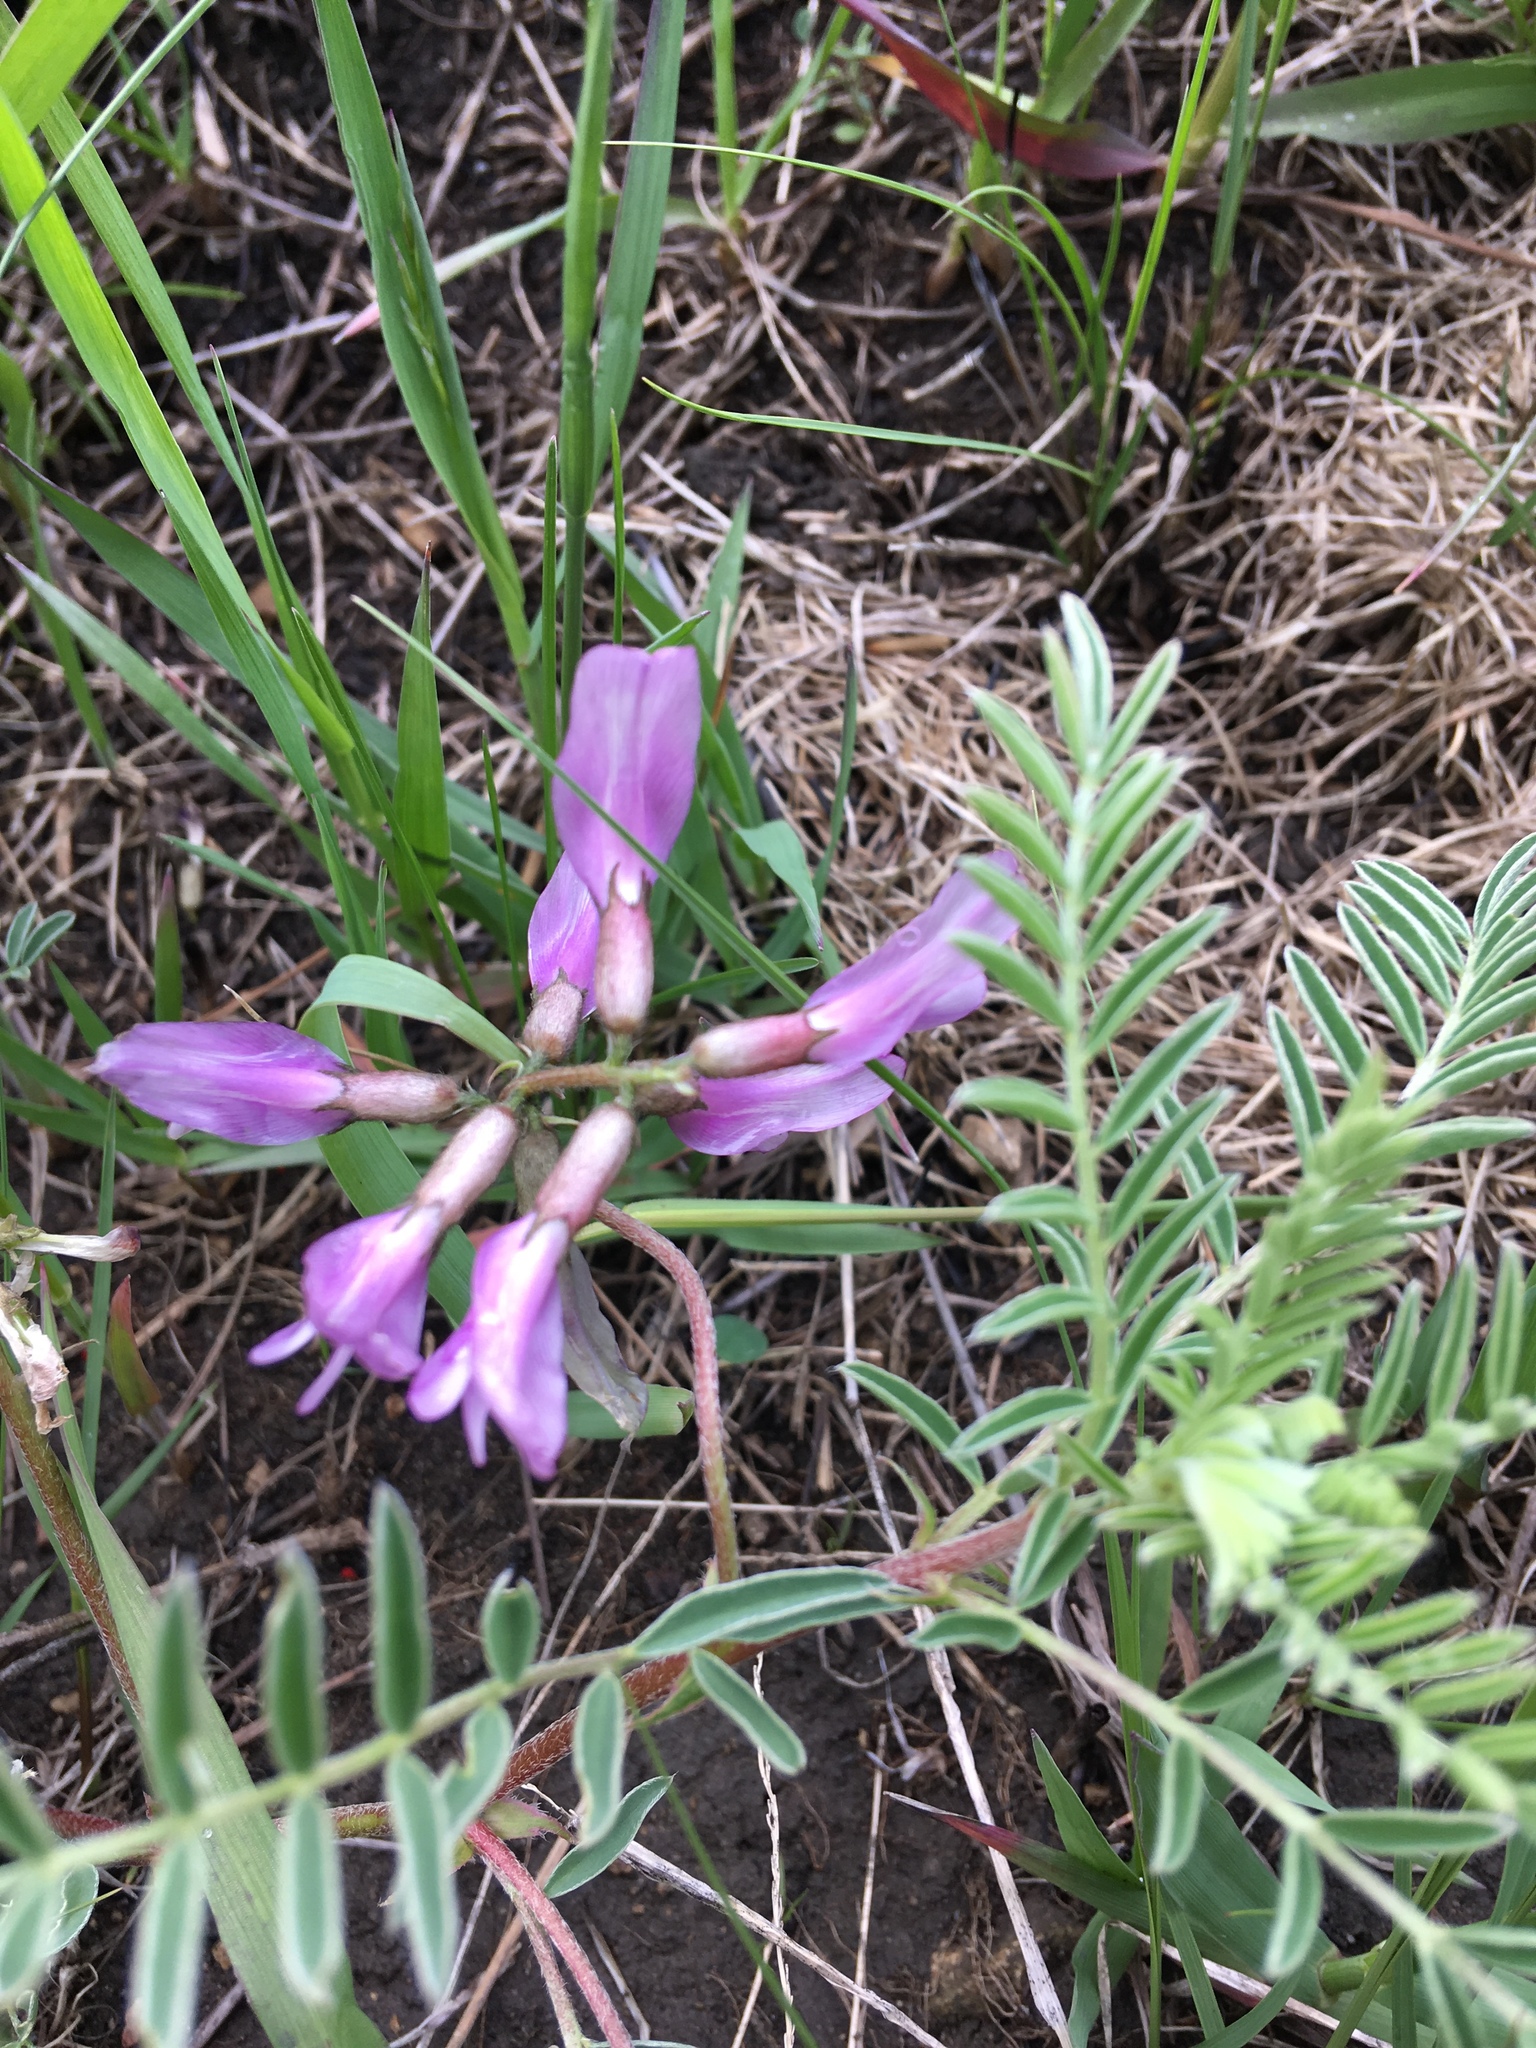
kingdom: Plantae
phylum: Tracheophyta
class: Magnoliopsida
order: Fabales
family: Fabaceae
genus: Astragalus
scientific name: Astragalus crassicarpus
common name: Ground-plum milk-vetch
